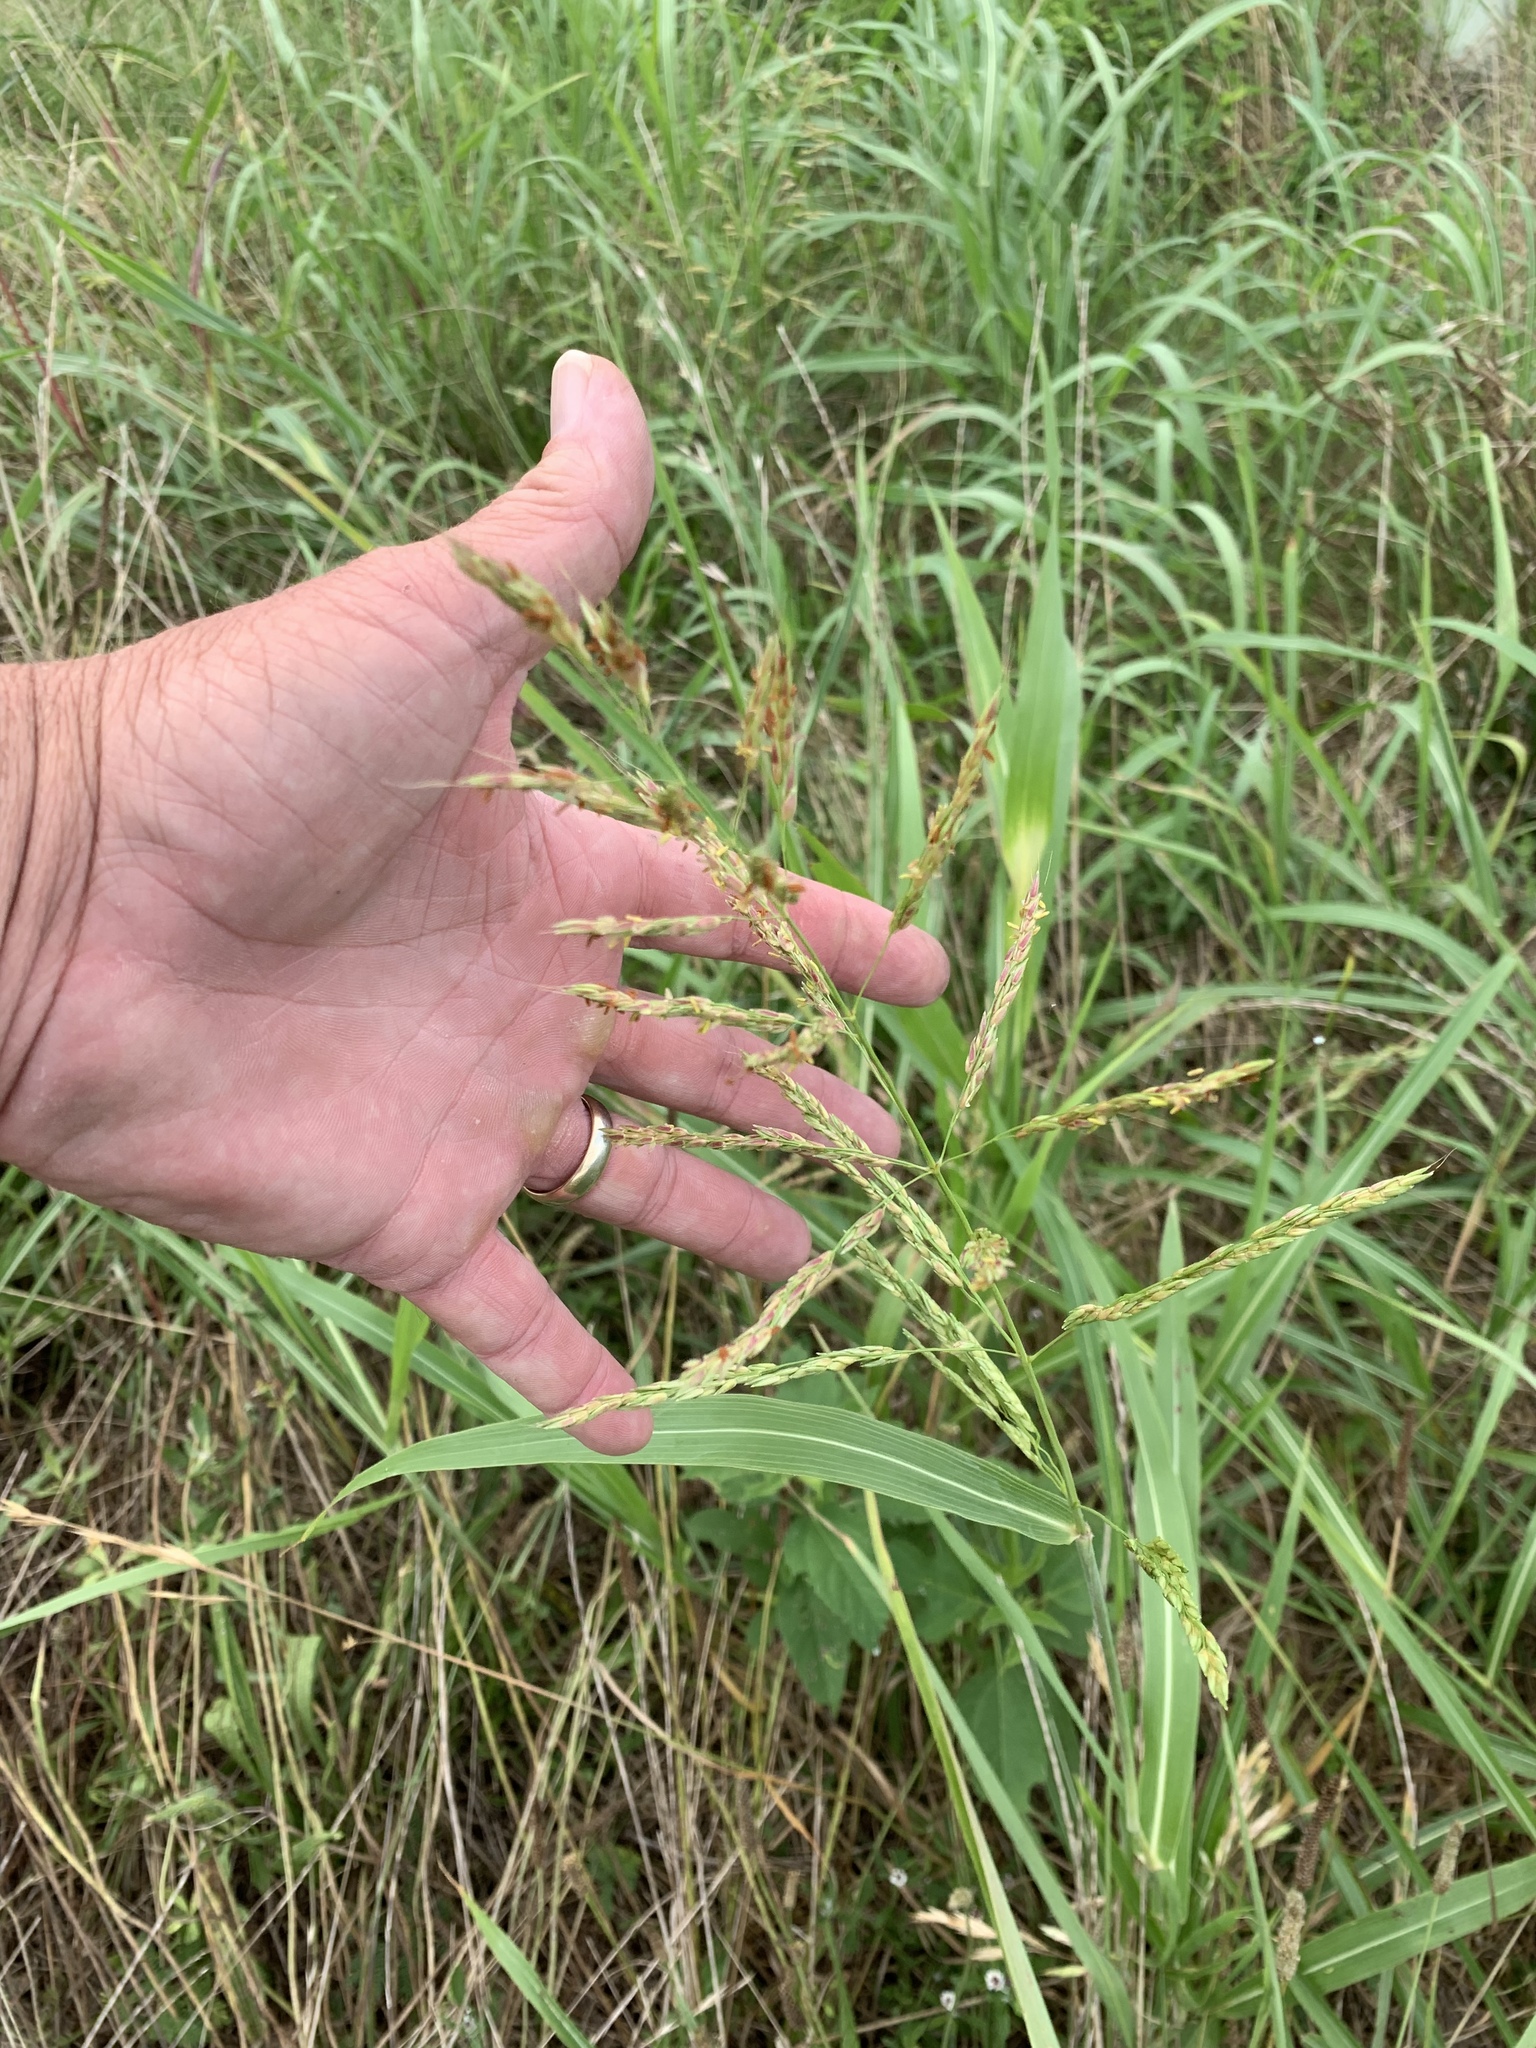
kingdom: Plantae
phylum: Tracheophyta
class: Liliopsida
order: Poales
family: Poaceae
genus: Sorghum
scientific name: Sorghum halepense
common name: Johnson-grass
